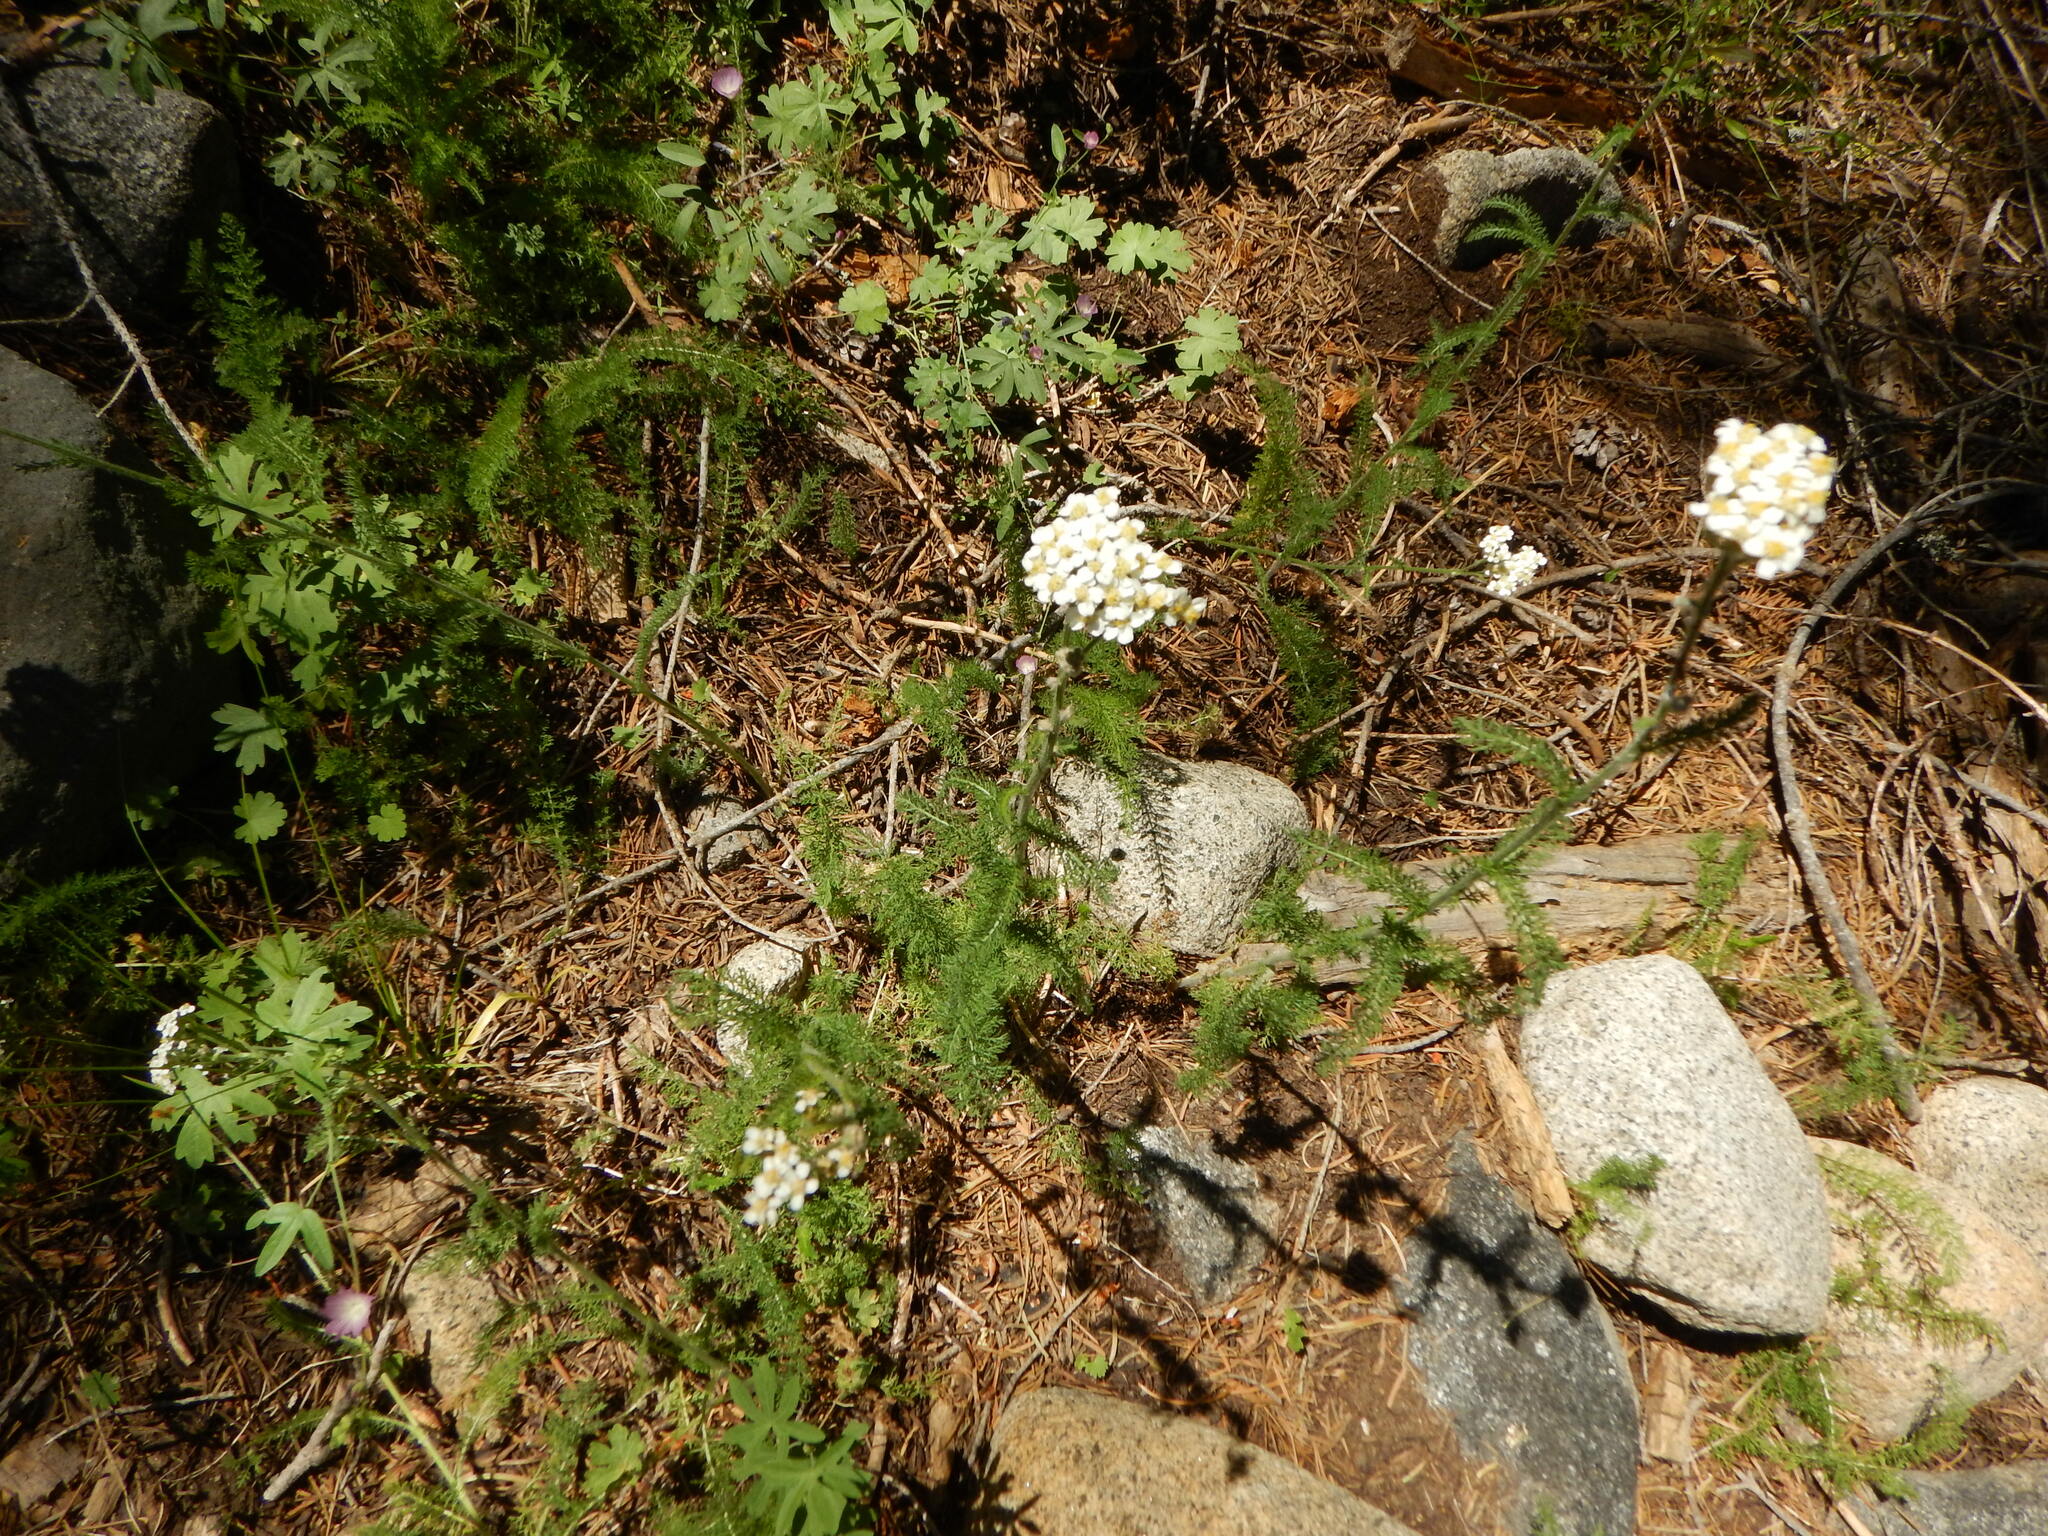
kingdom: Plantae
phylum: Tracheophyta
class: Magnoliopsida
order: Asterales
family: Asteraceae
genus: Achillea
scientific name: Achillea millefolium
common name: Yarrow
